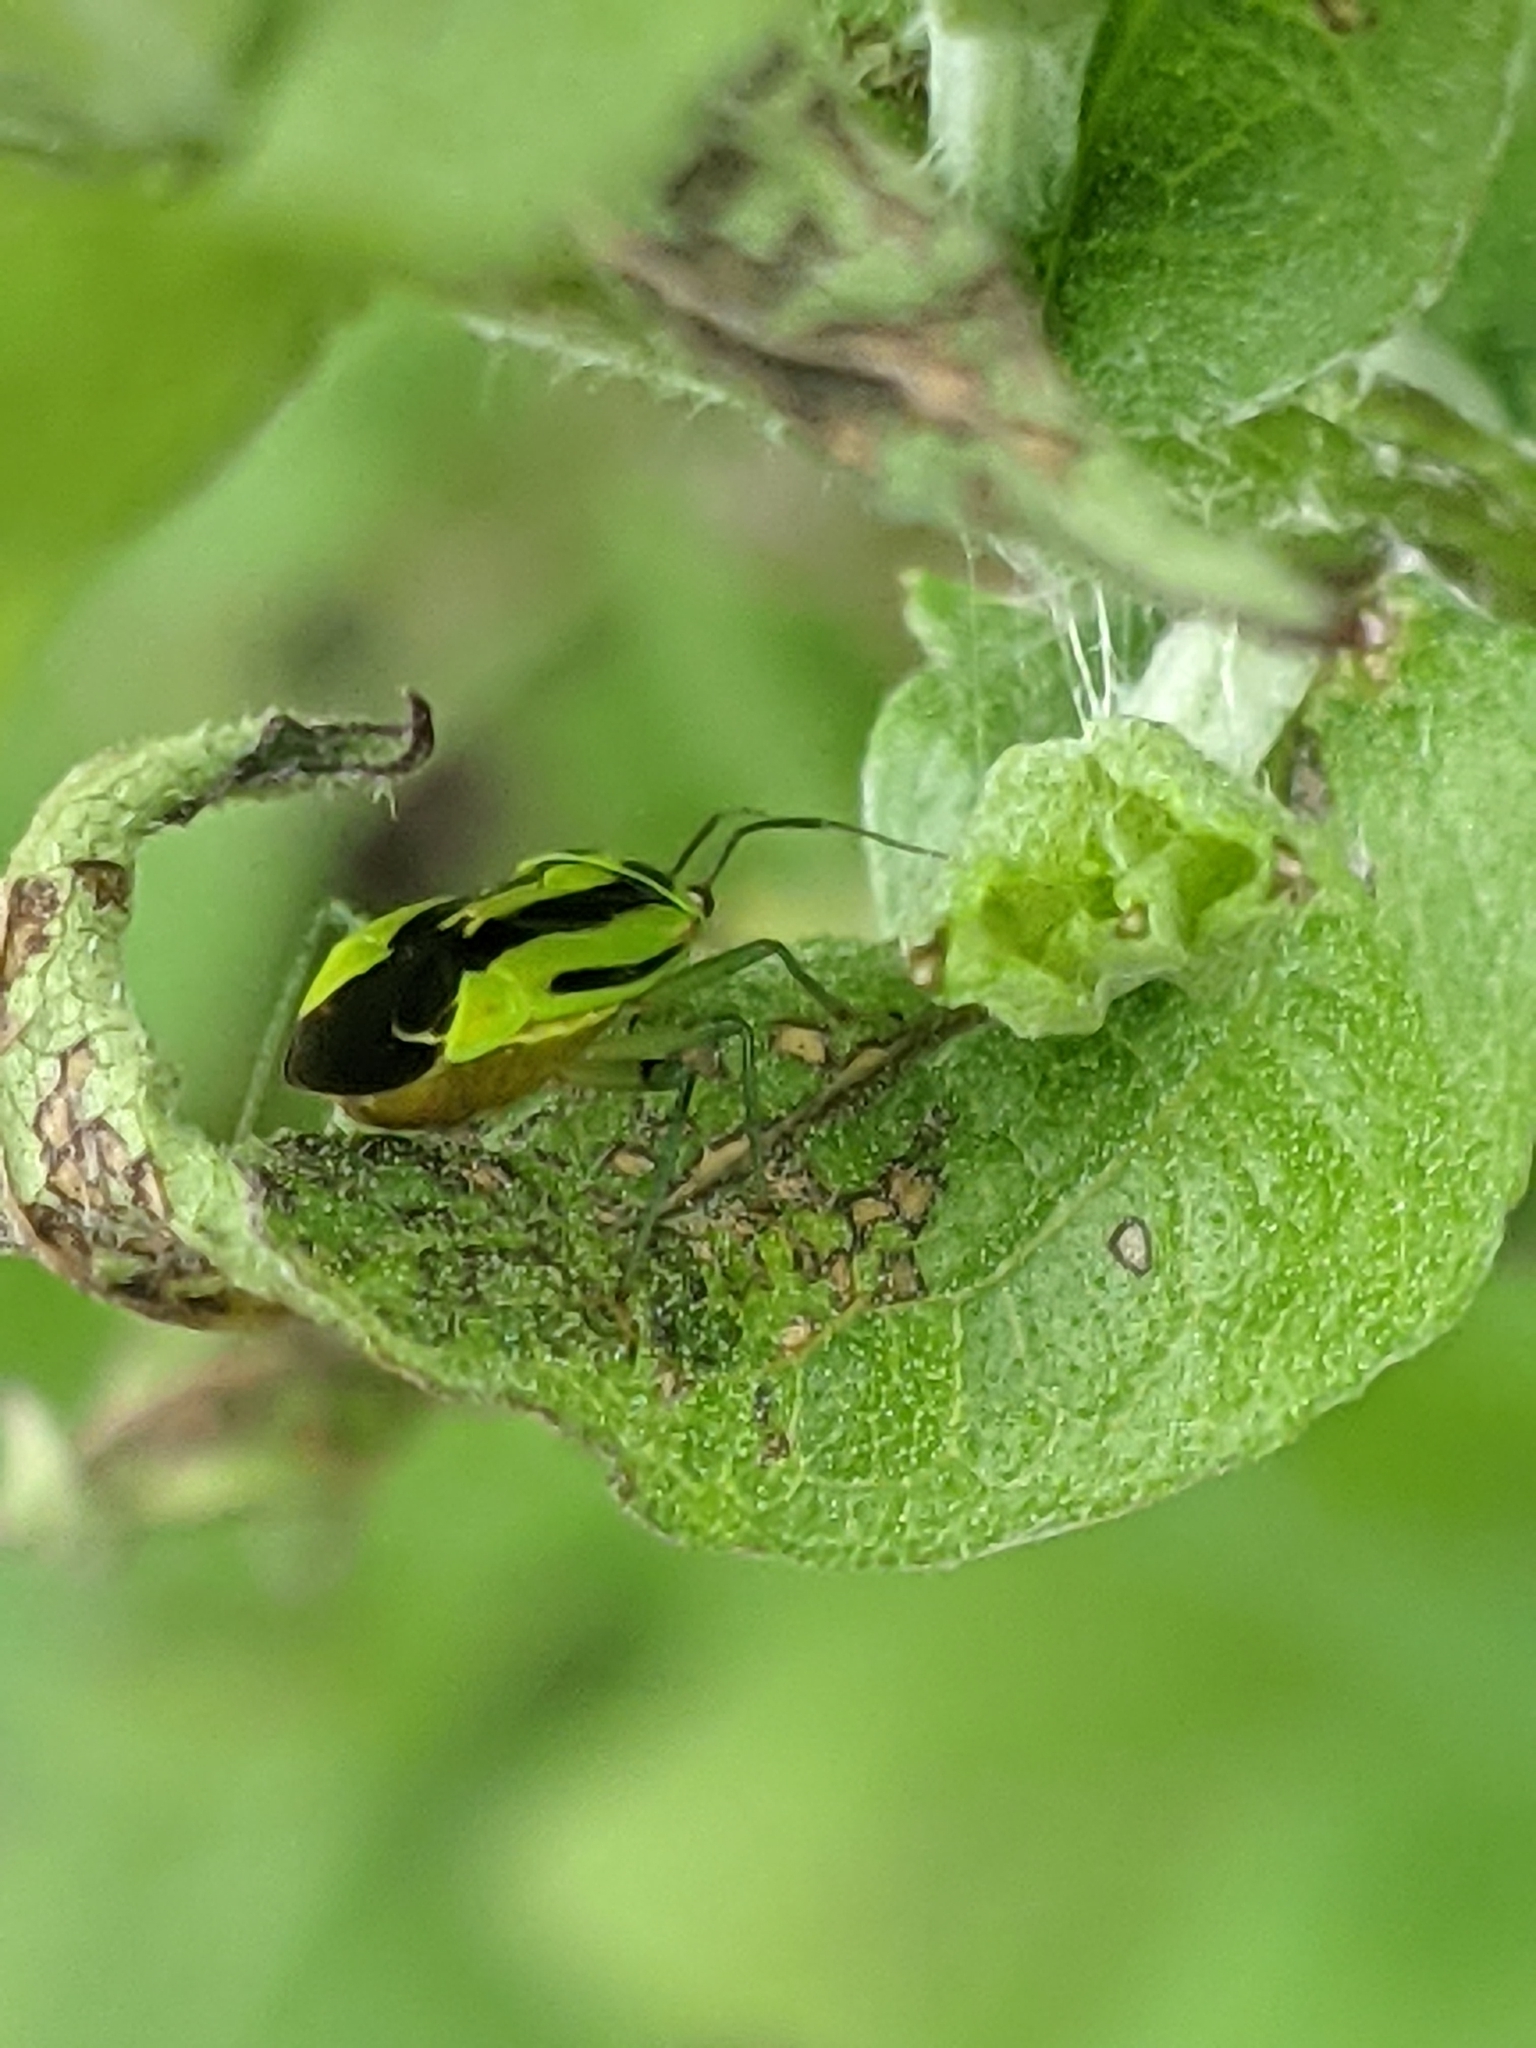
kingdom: Animalia
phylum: Arthropoda
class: Insecta
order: Hemiptera
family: Miridae
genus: Poecilocapsus
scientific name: Poecilocapsus lineatus
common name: Four-lined plant bug
